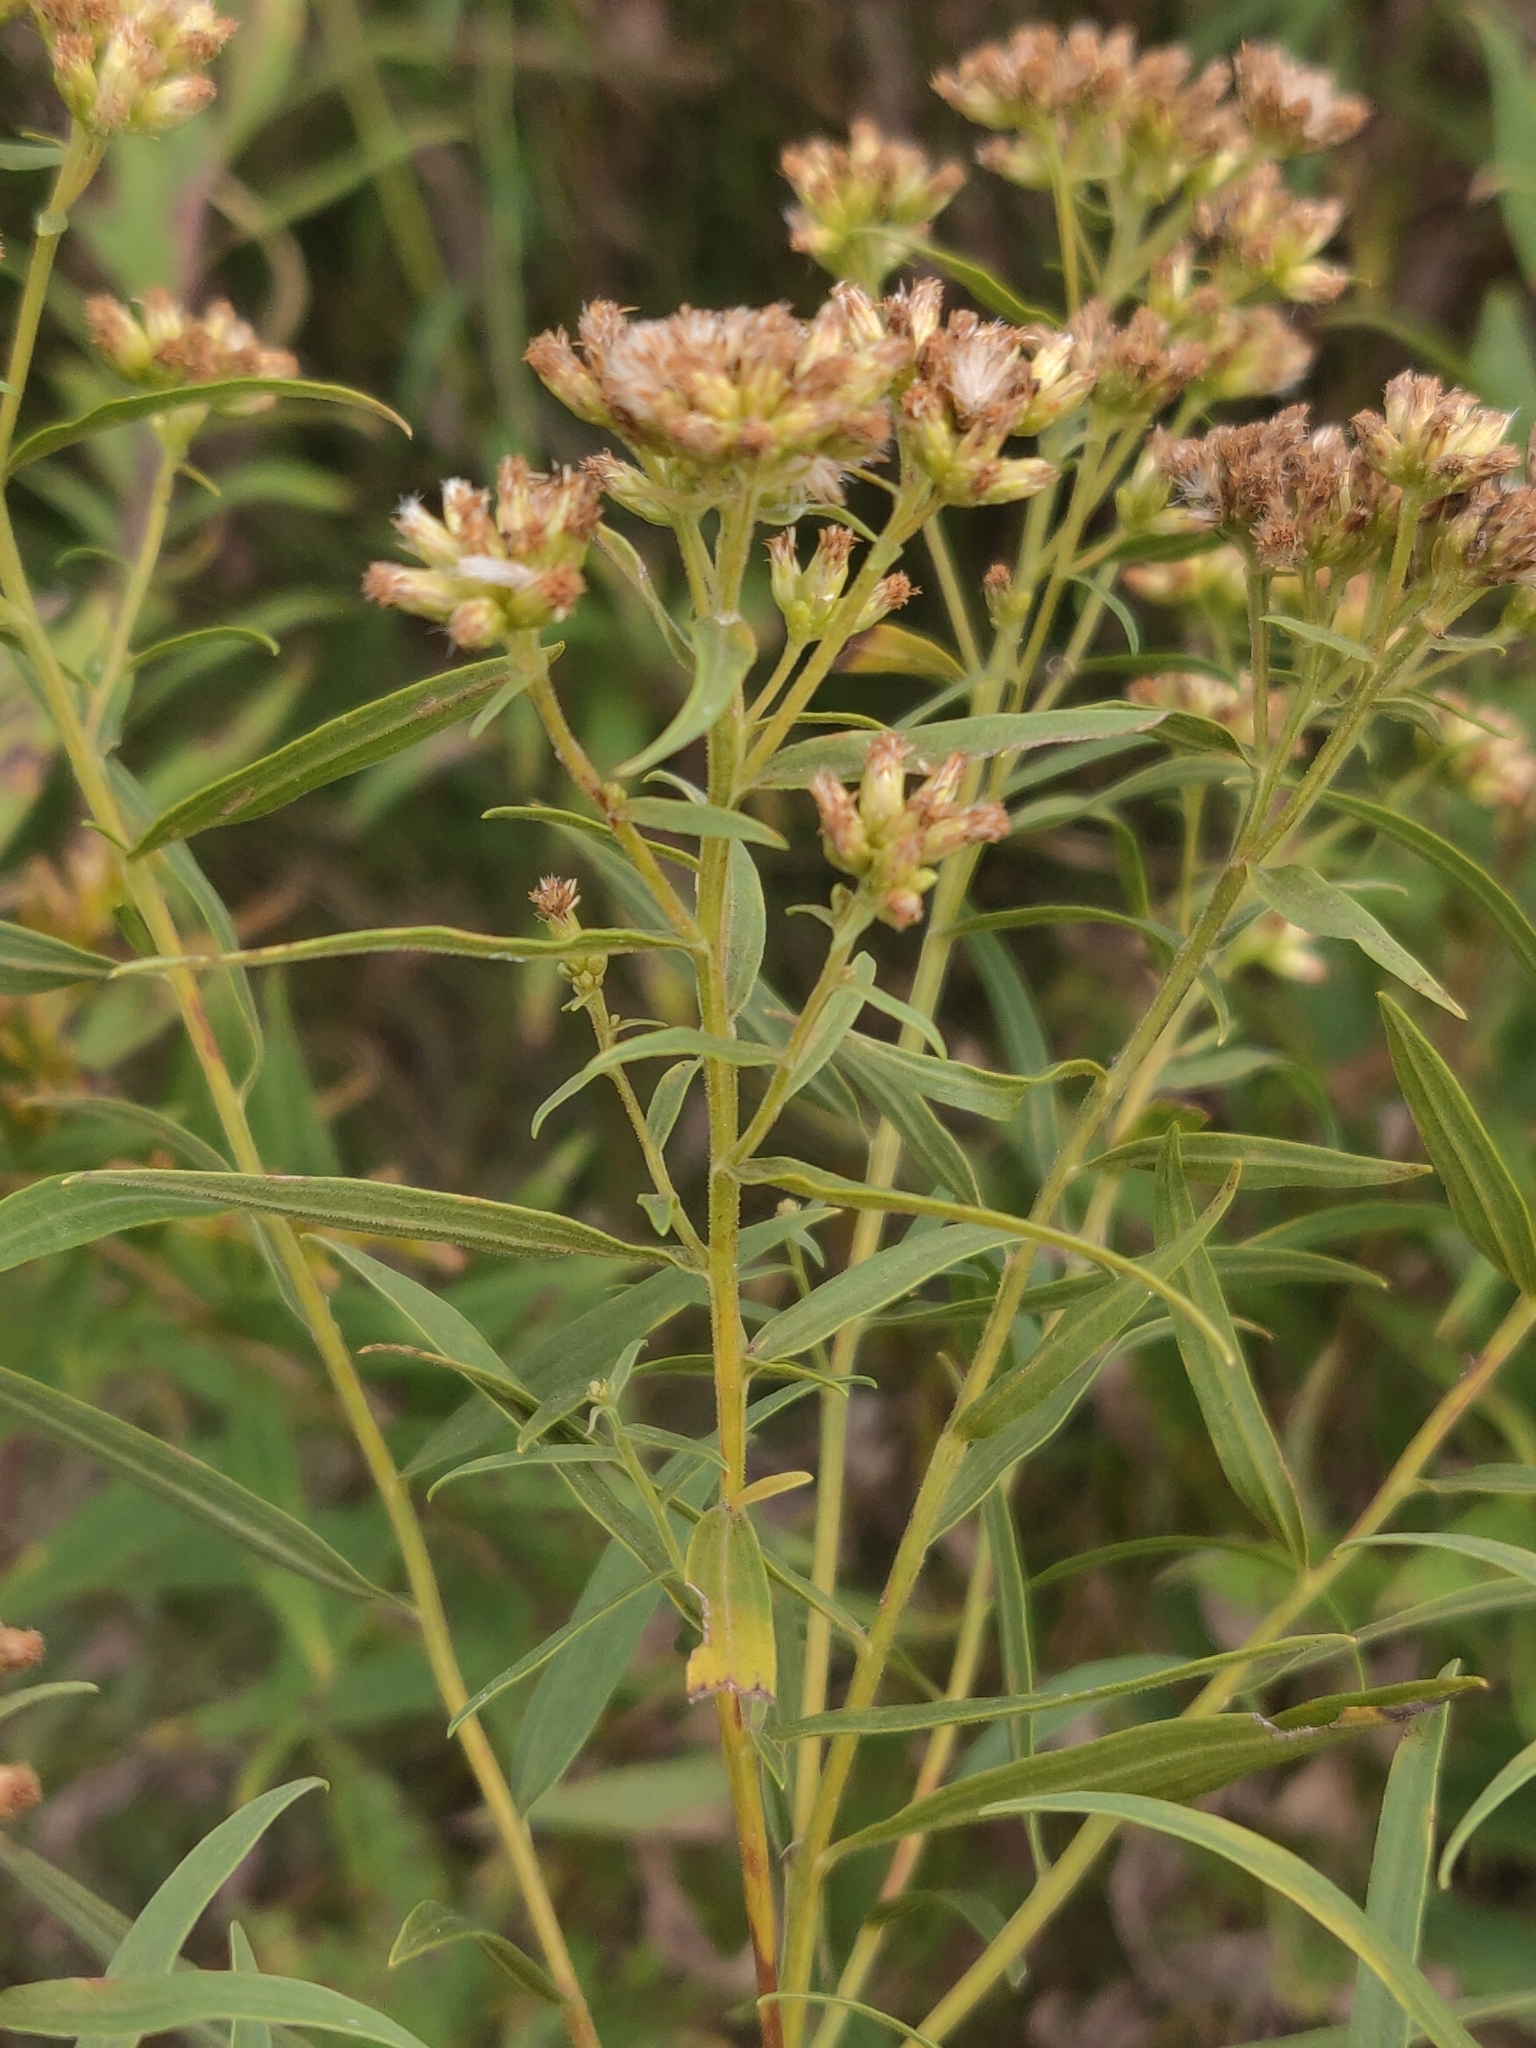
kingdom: Plantae
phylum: Tracheophyta
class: Magnoliopsida
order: Asterales
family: Asteraceae
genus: Euthamia
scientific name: Euthamia graminifolia
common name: Common goldentop
